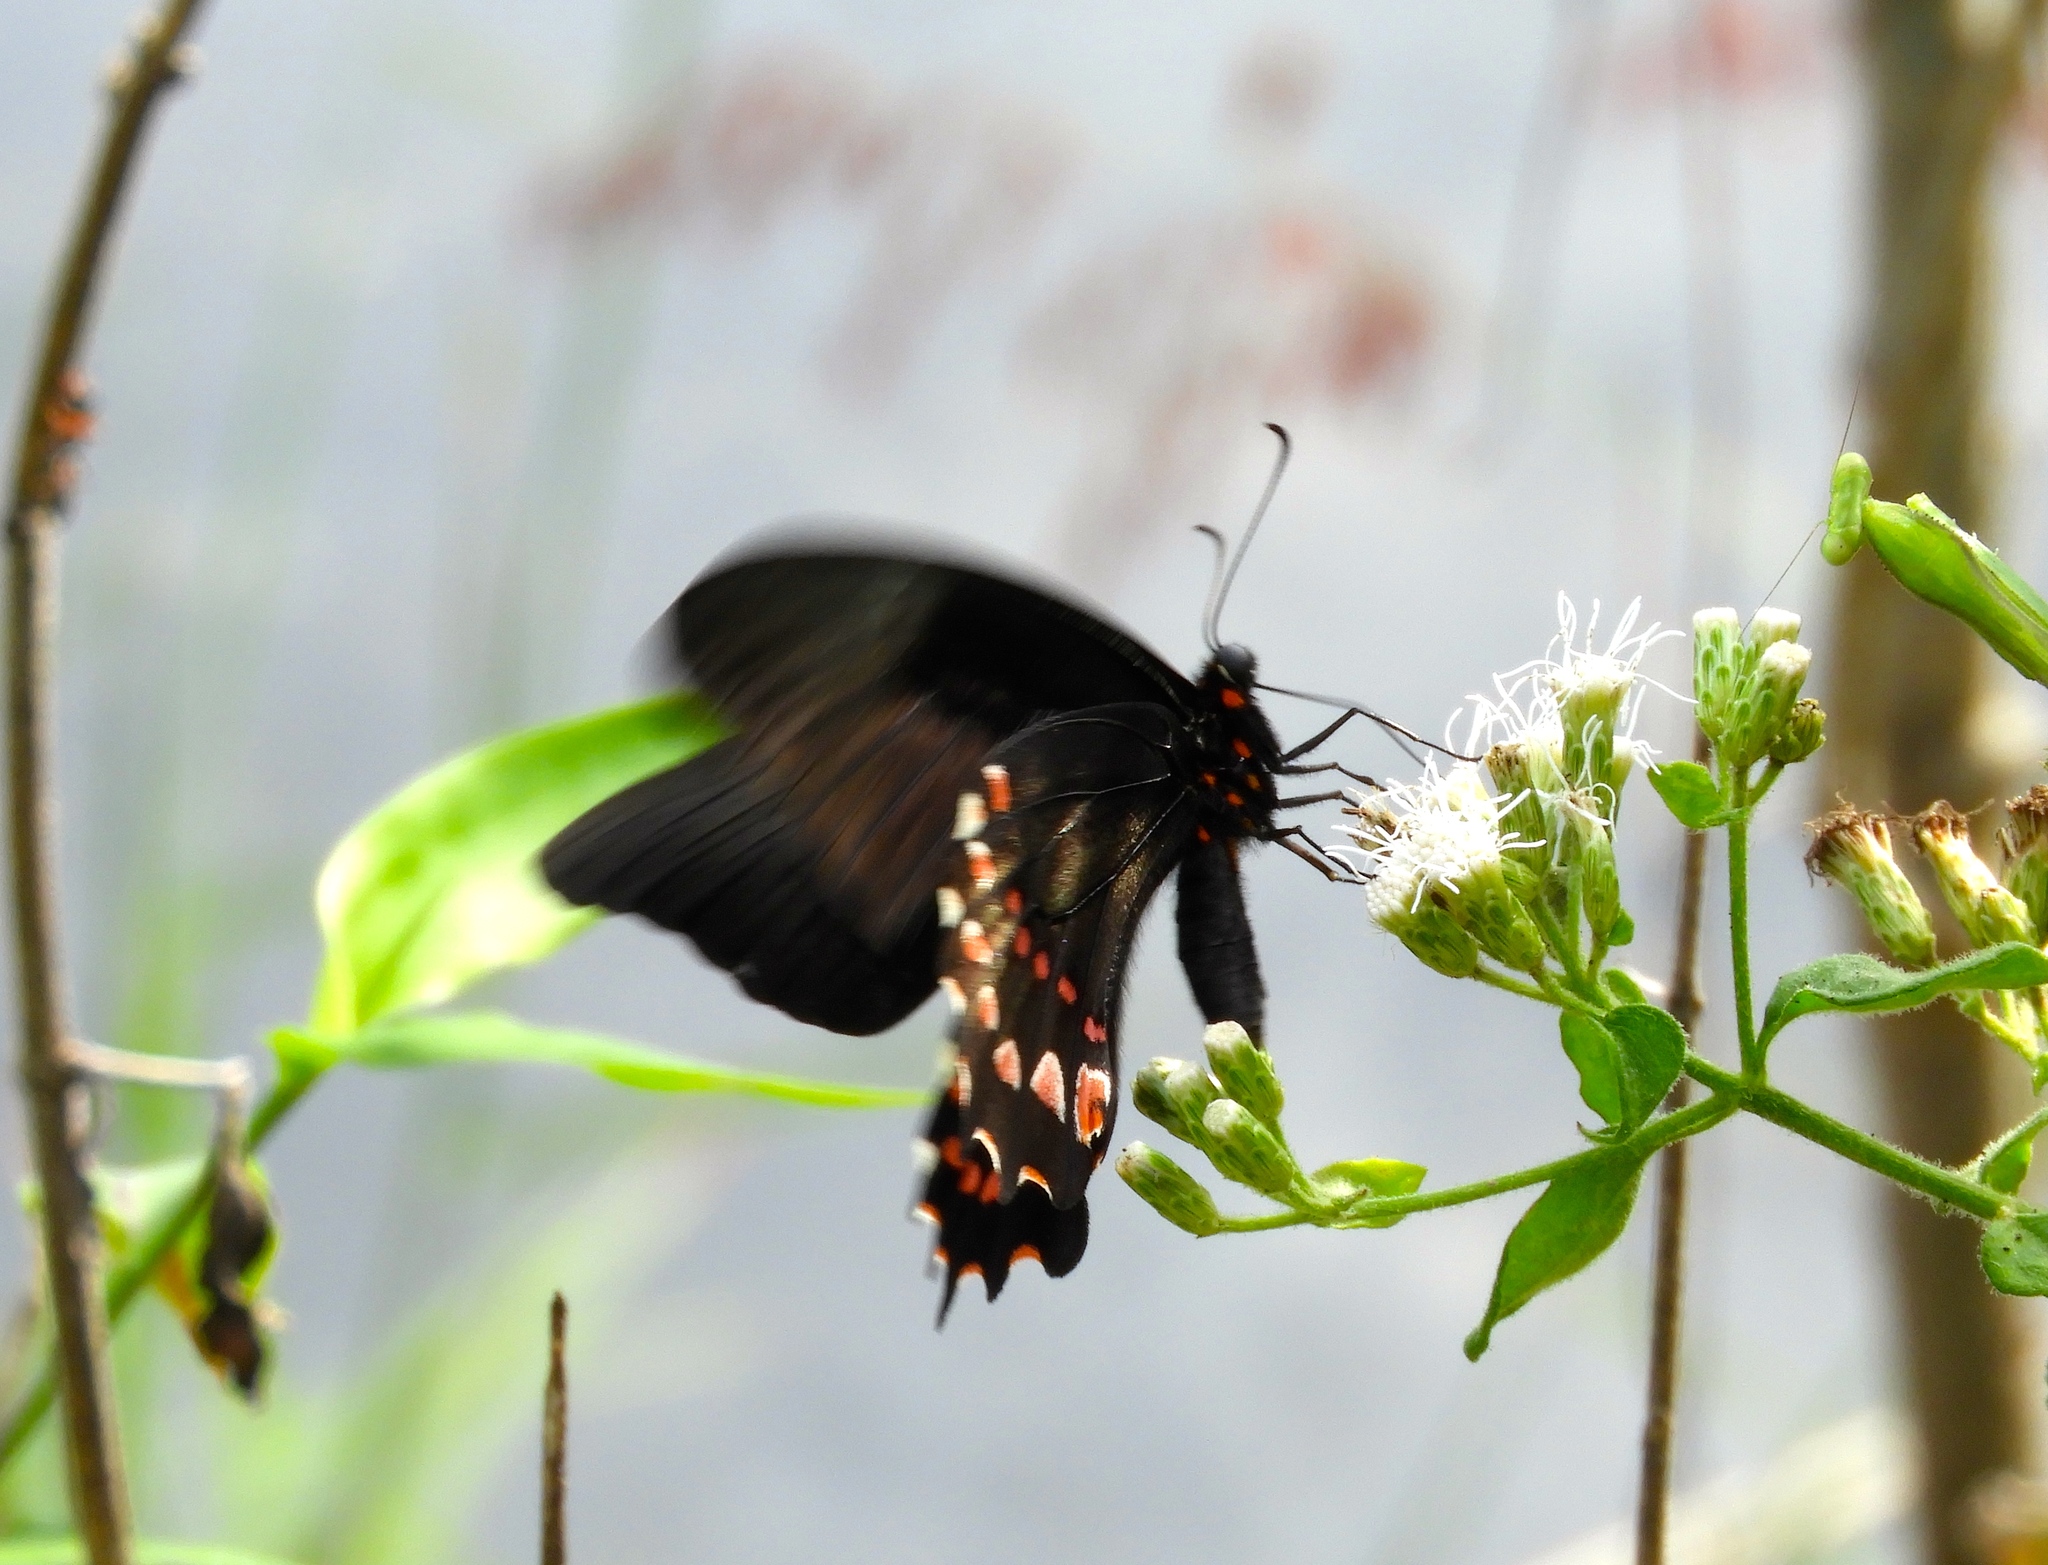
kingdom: Animalia
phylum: Arthropoda
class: Insecta
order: Lepidoptera
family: Papilionidae
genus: Heraclides
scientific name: Heraclides rogeri
